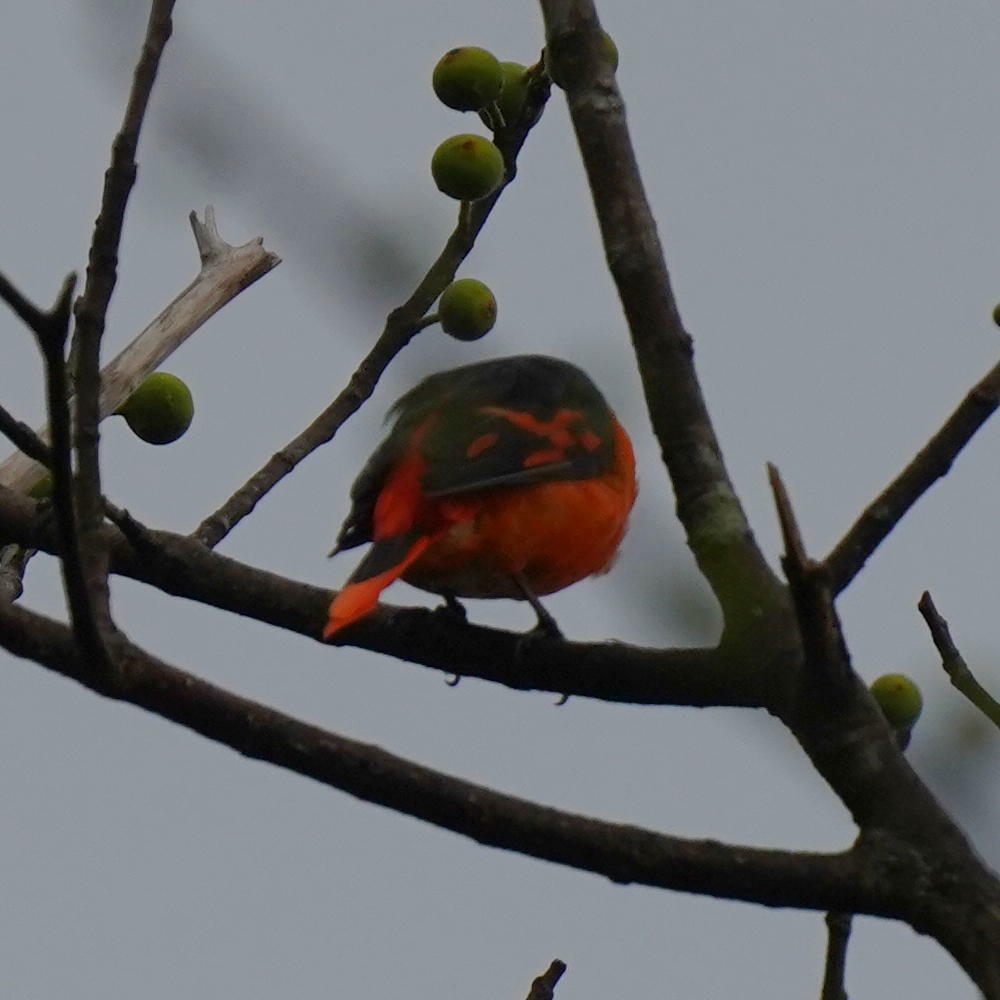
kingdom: Animalia
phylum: Chordata
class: Aves
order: Passeriformes
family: Campephagidae
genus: Pericrocotus
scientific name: Pericrocotus flammeus
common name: Orange minivet
